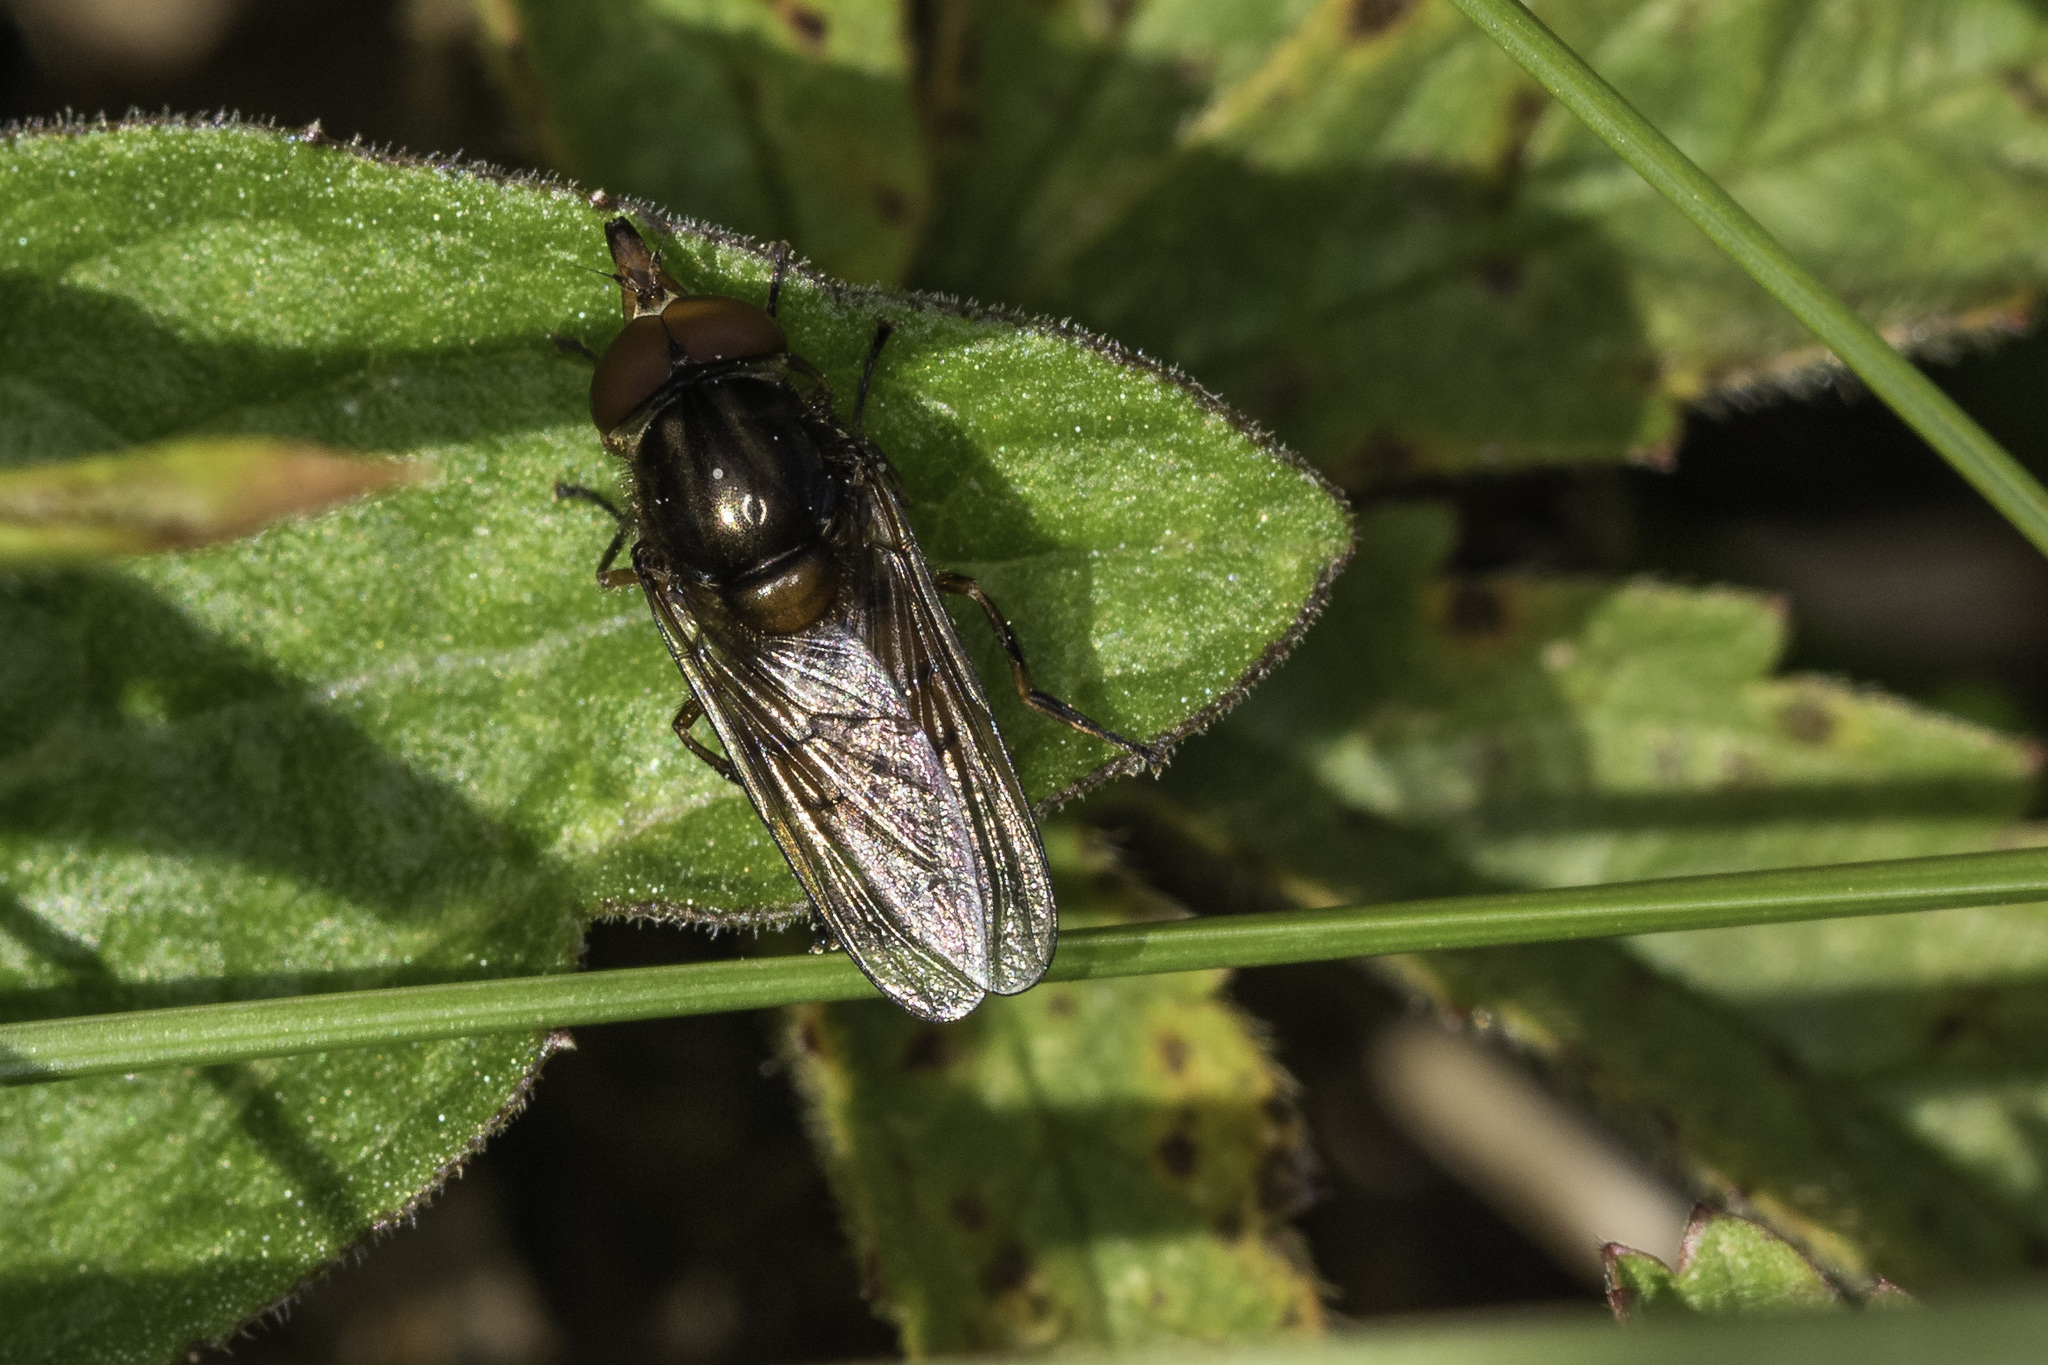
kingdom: Animalia
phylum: Arthropoda
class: Insecta
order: Diptera
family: Syrphidae
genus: Rhingia
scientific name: Rhingia campestris
